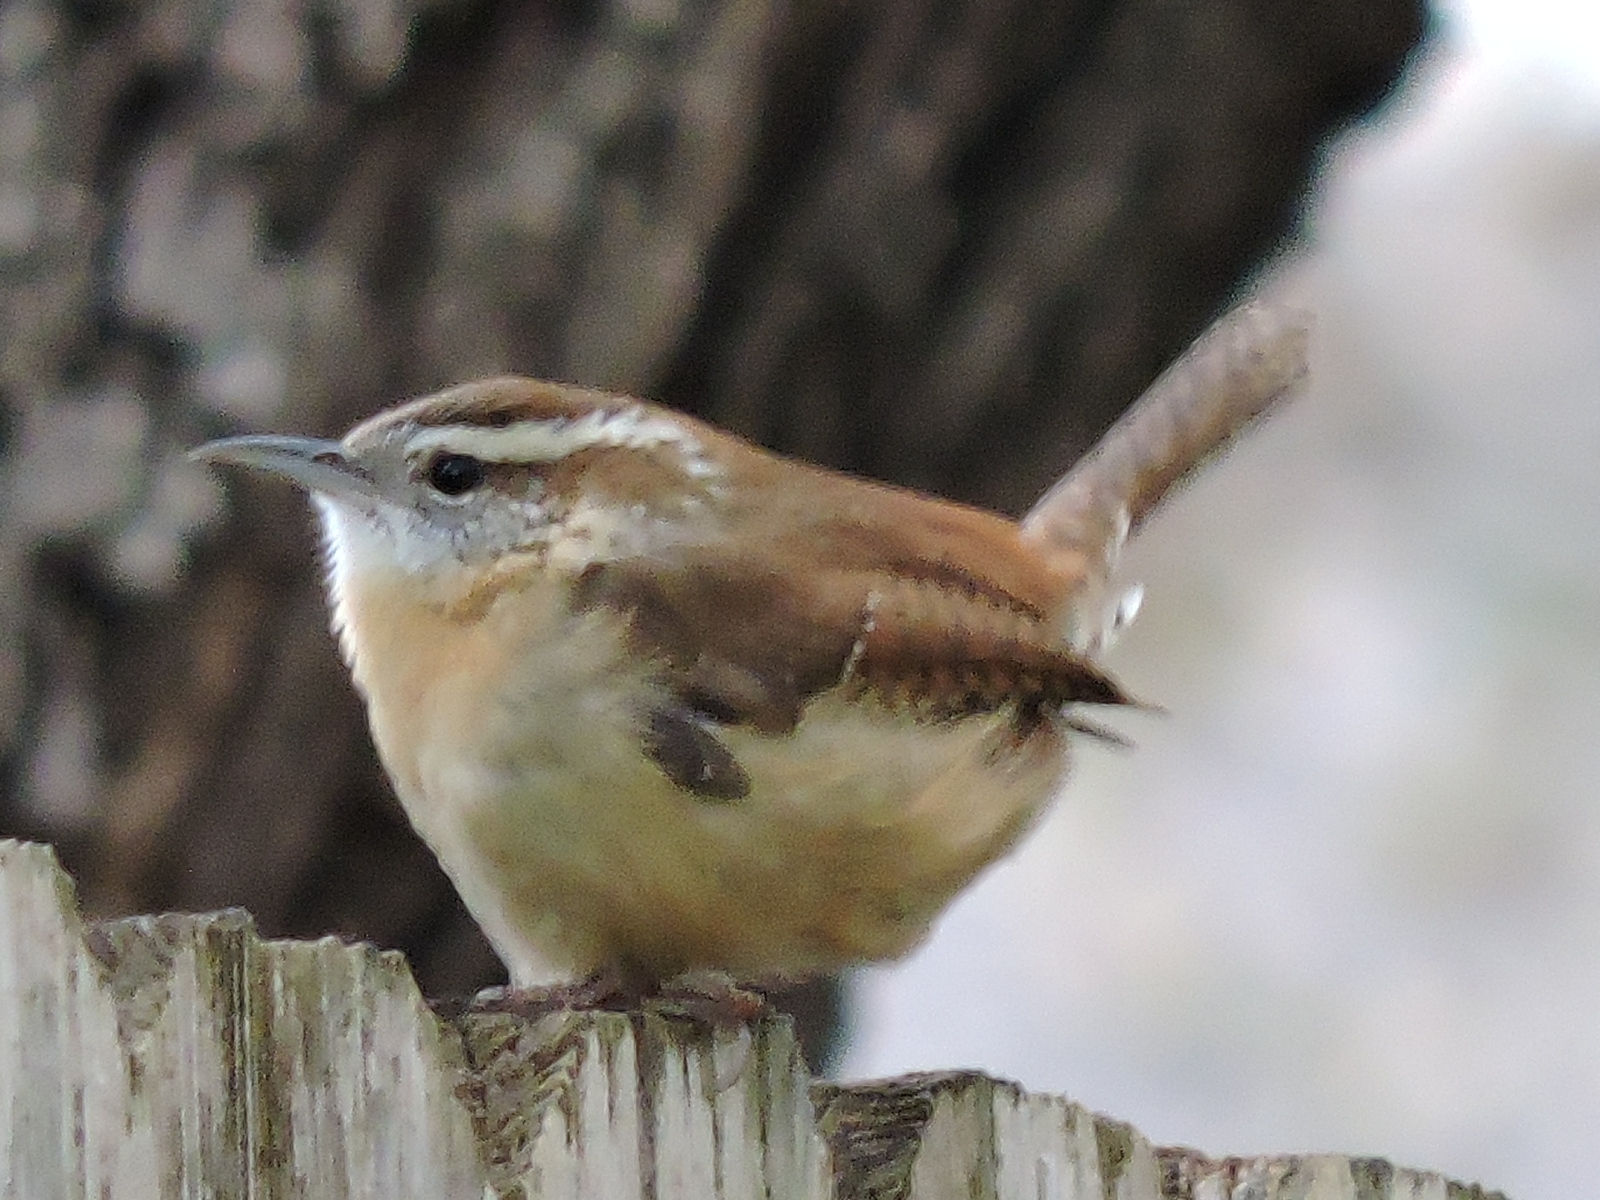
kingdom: Animalia
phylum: Chordata
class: Aves
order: Passeriformes
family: Troglodytidae
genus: Thryothorus
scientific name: Thryothorus ludovicianus
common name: Carolina wren
